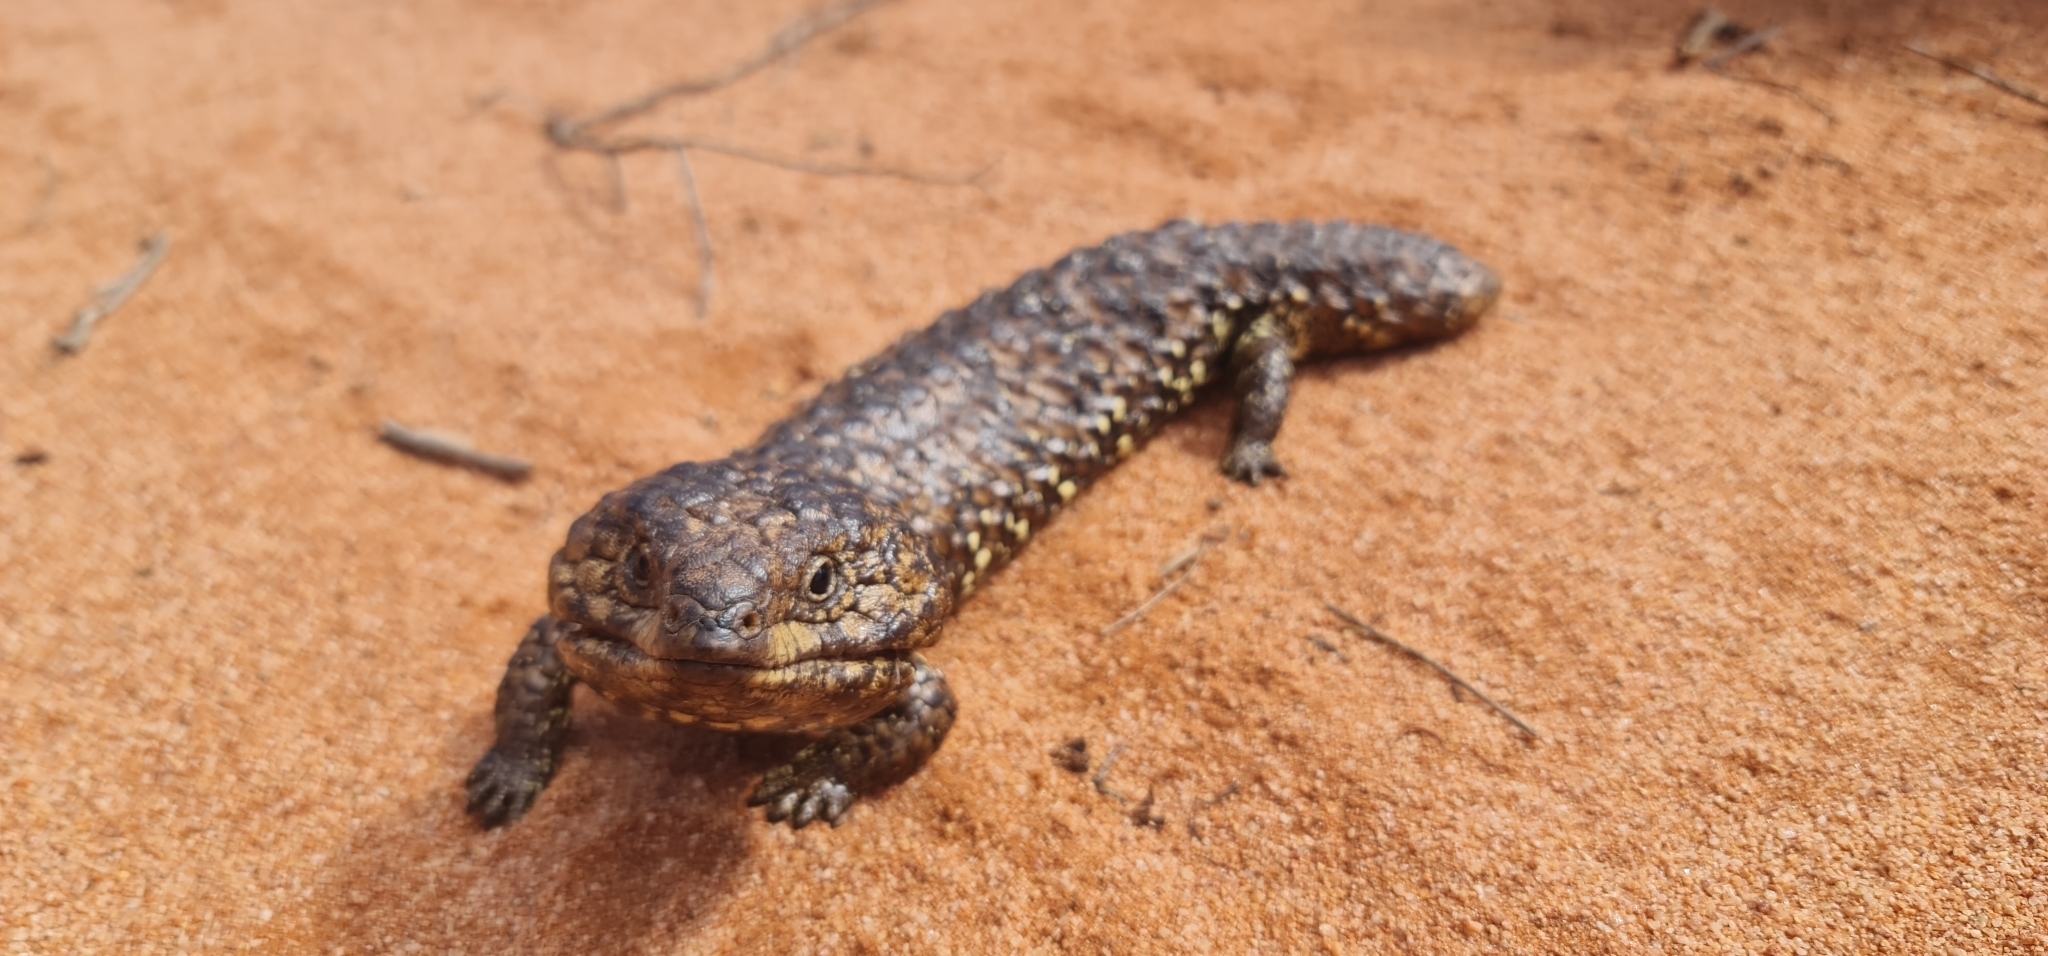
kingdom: Animalia
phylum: Chordata
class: Squamata
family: Scincidae
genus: Tiliqua
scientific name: Tiliqua rugosa
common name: Pinecone lizard
